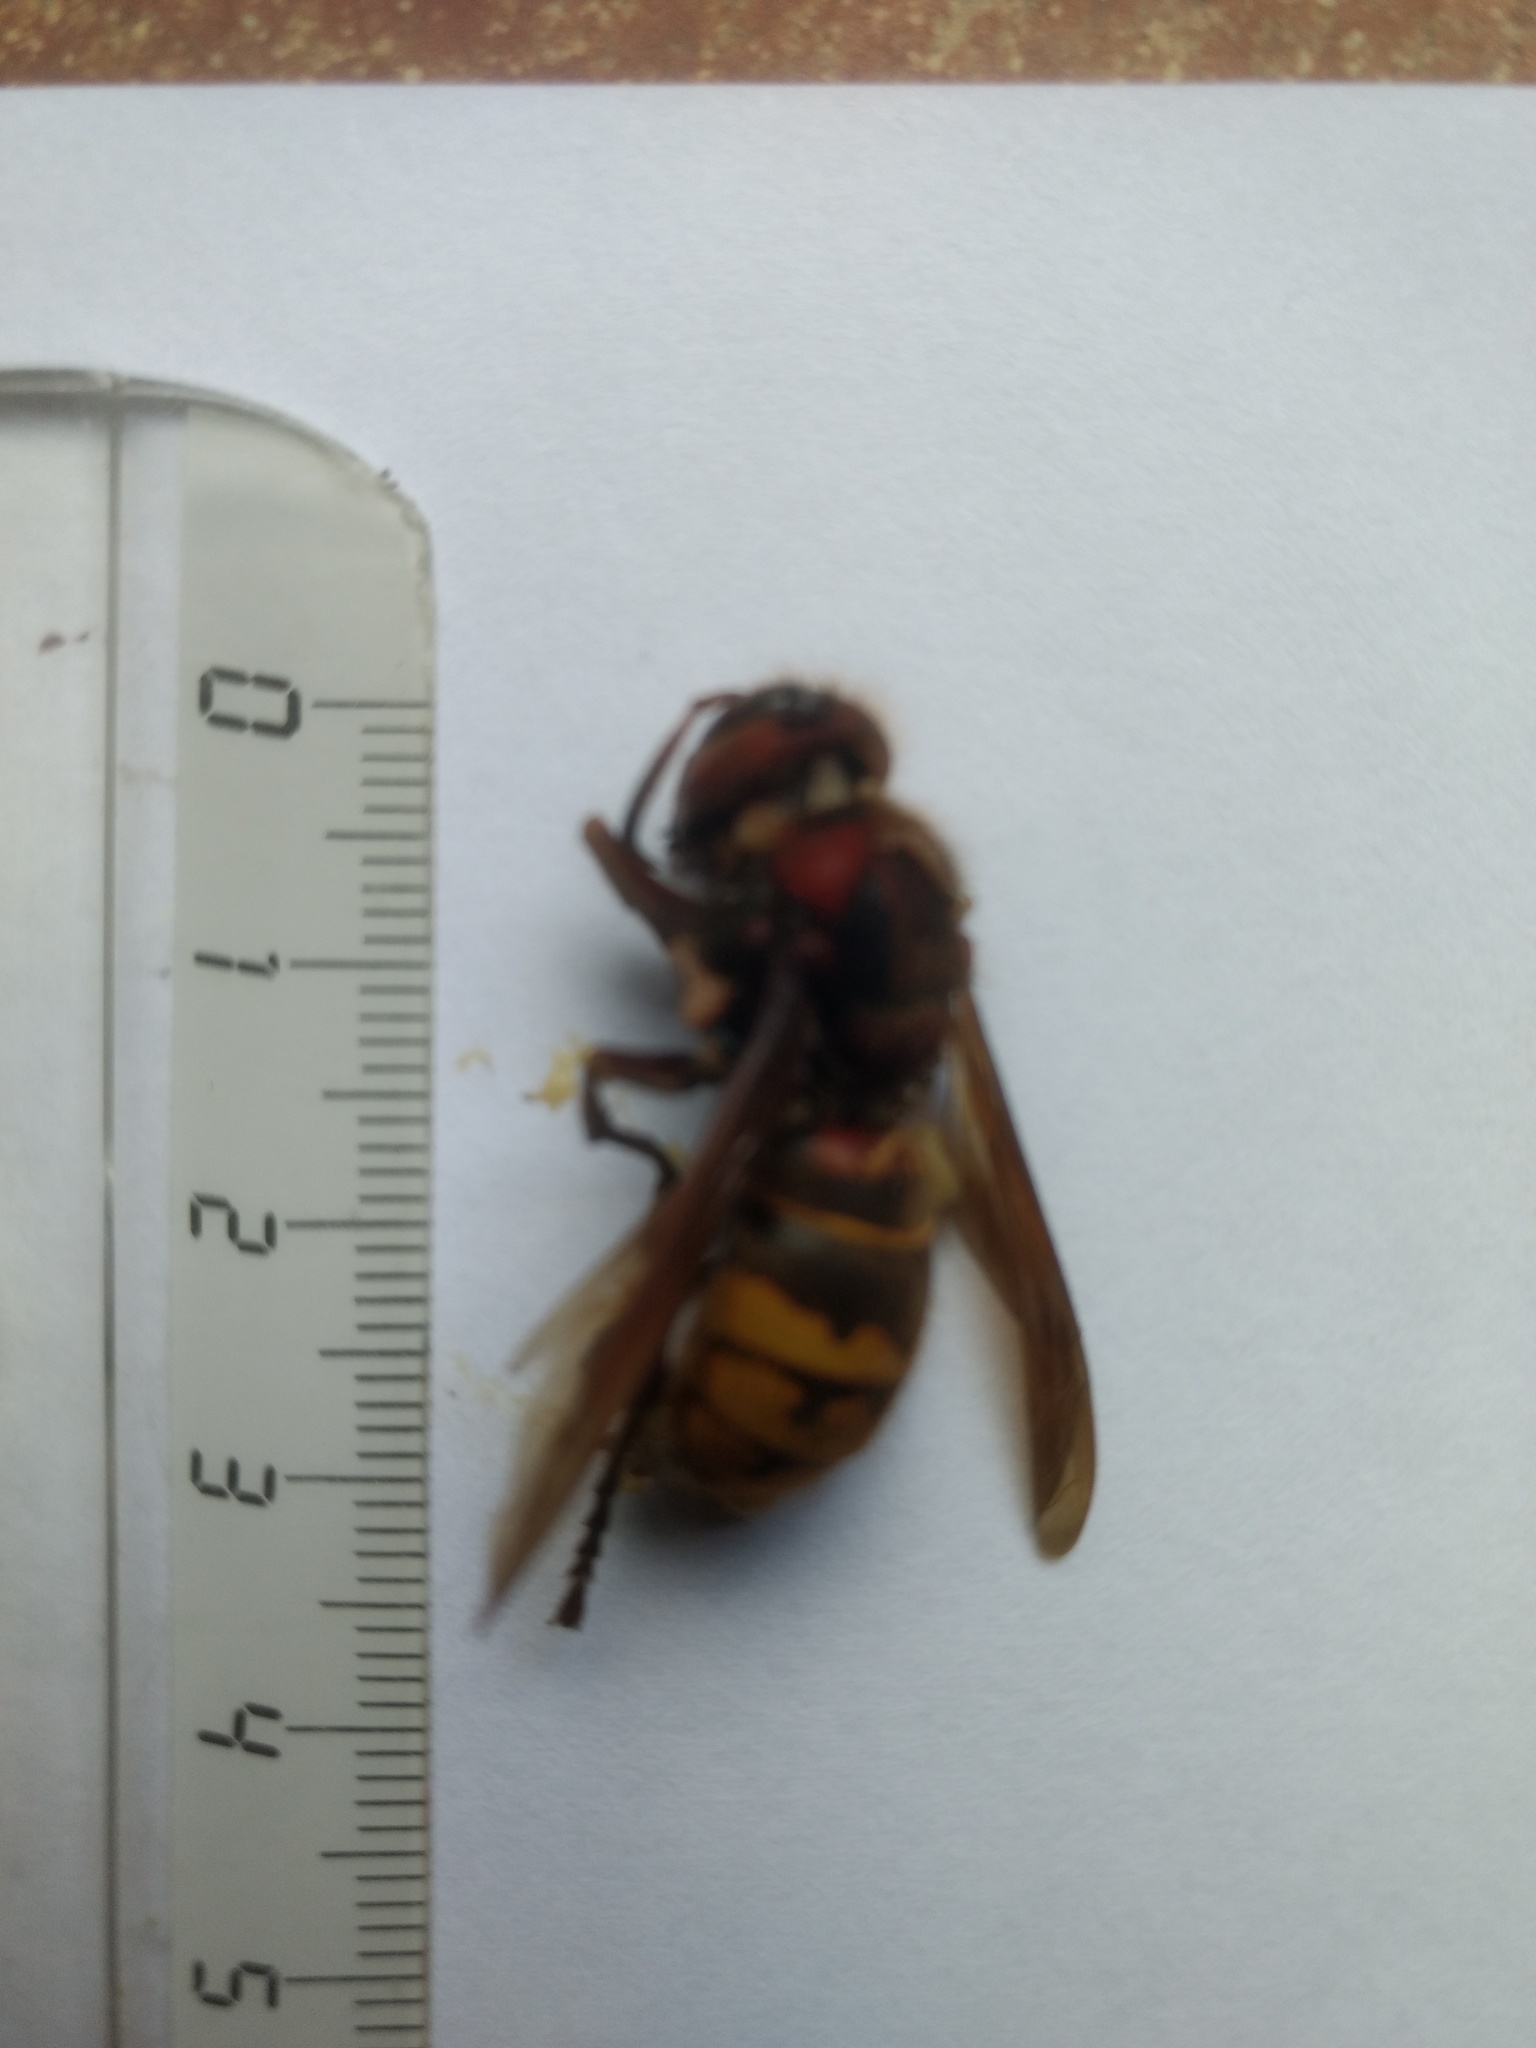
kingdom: Animalia
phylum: Arthropoda
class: Insecta
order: Hymenoptera
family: Vespidae
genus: Vespa
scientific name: Vespa crabro
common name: Hornet
